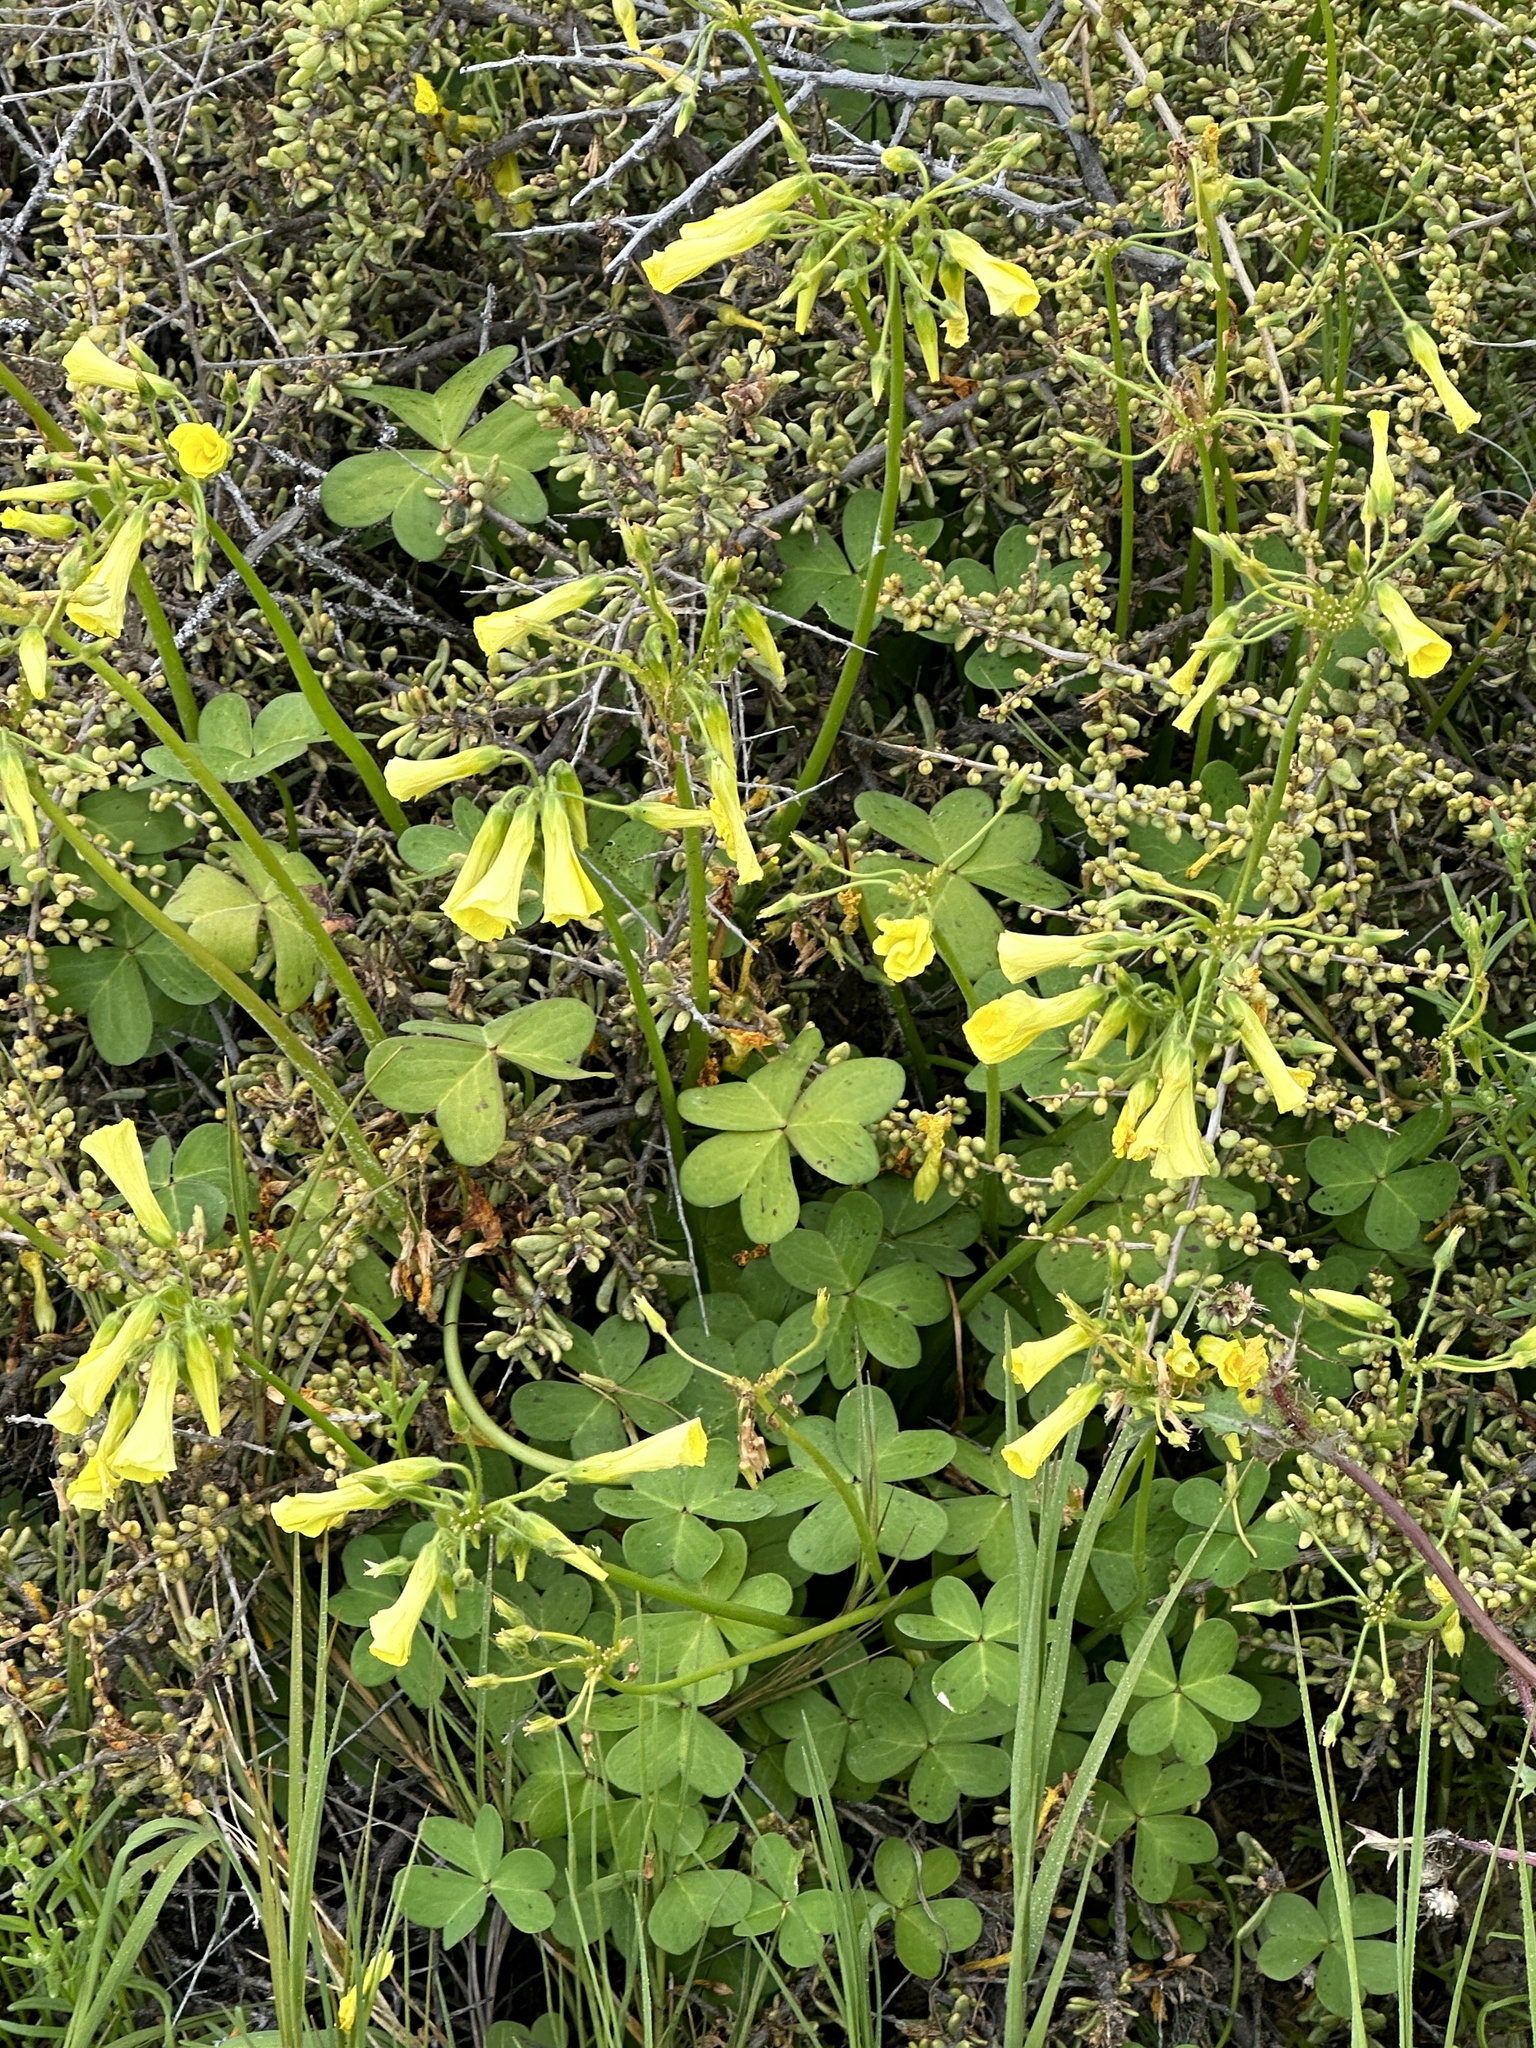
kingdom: Plantae
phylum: Tracheophyta
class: Magnoliopsida
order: Oxalidales
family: Oxalidaceae
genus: Oxalis
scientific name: Oxalis pes-caprae
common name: Bermuda-buttercup
